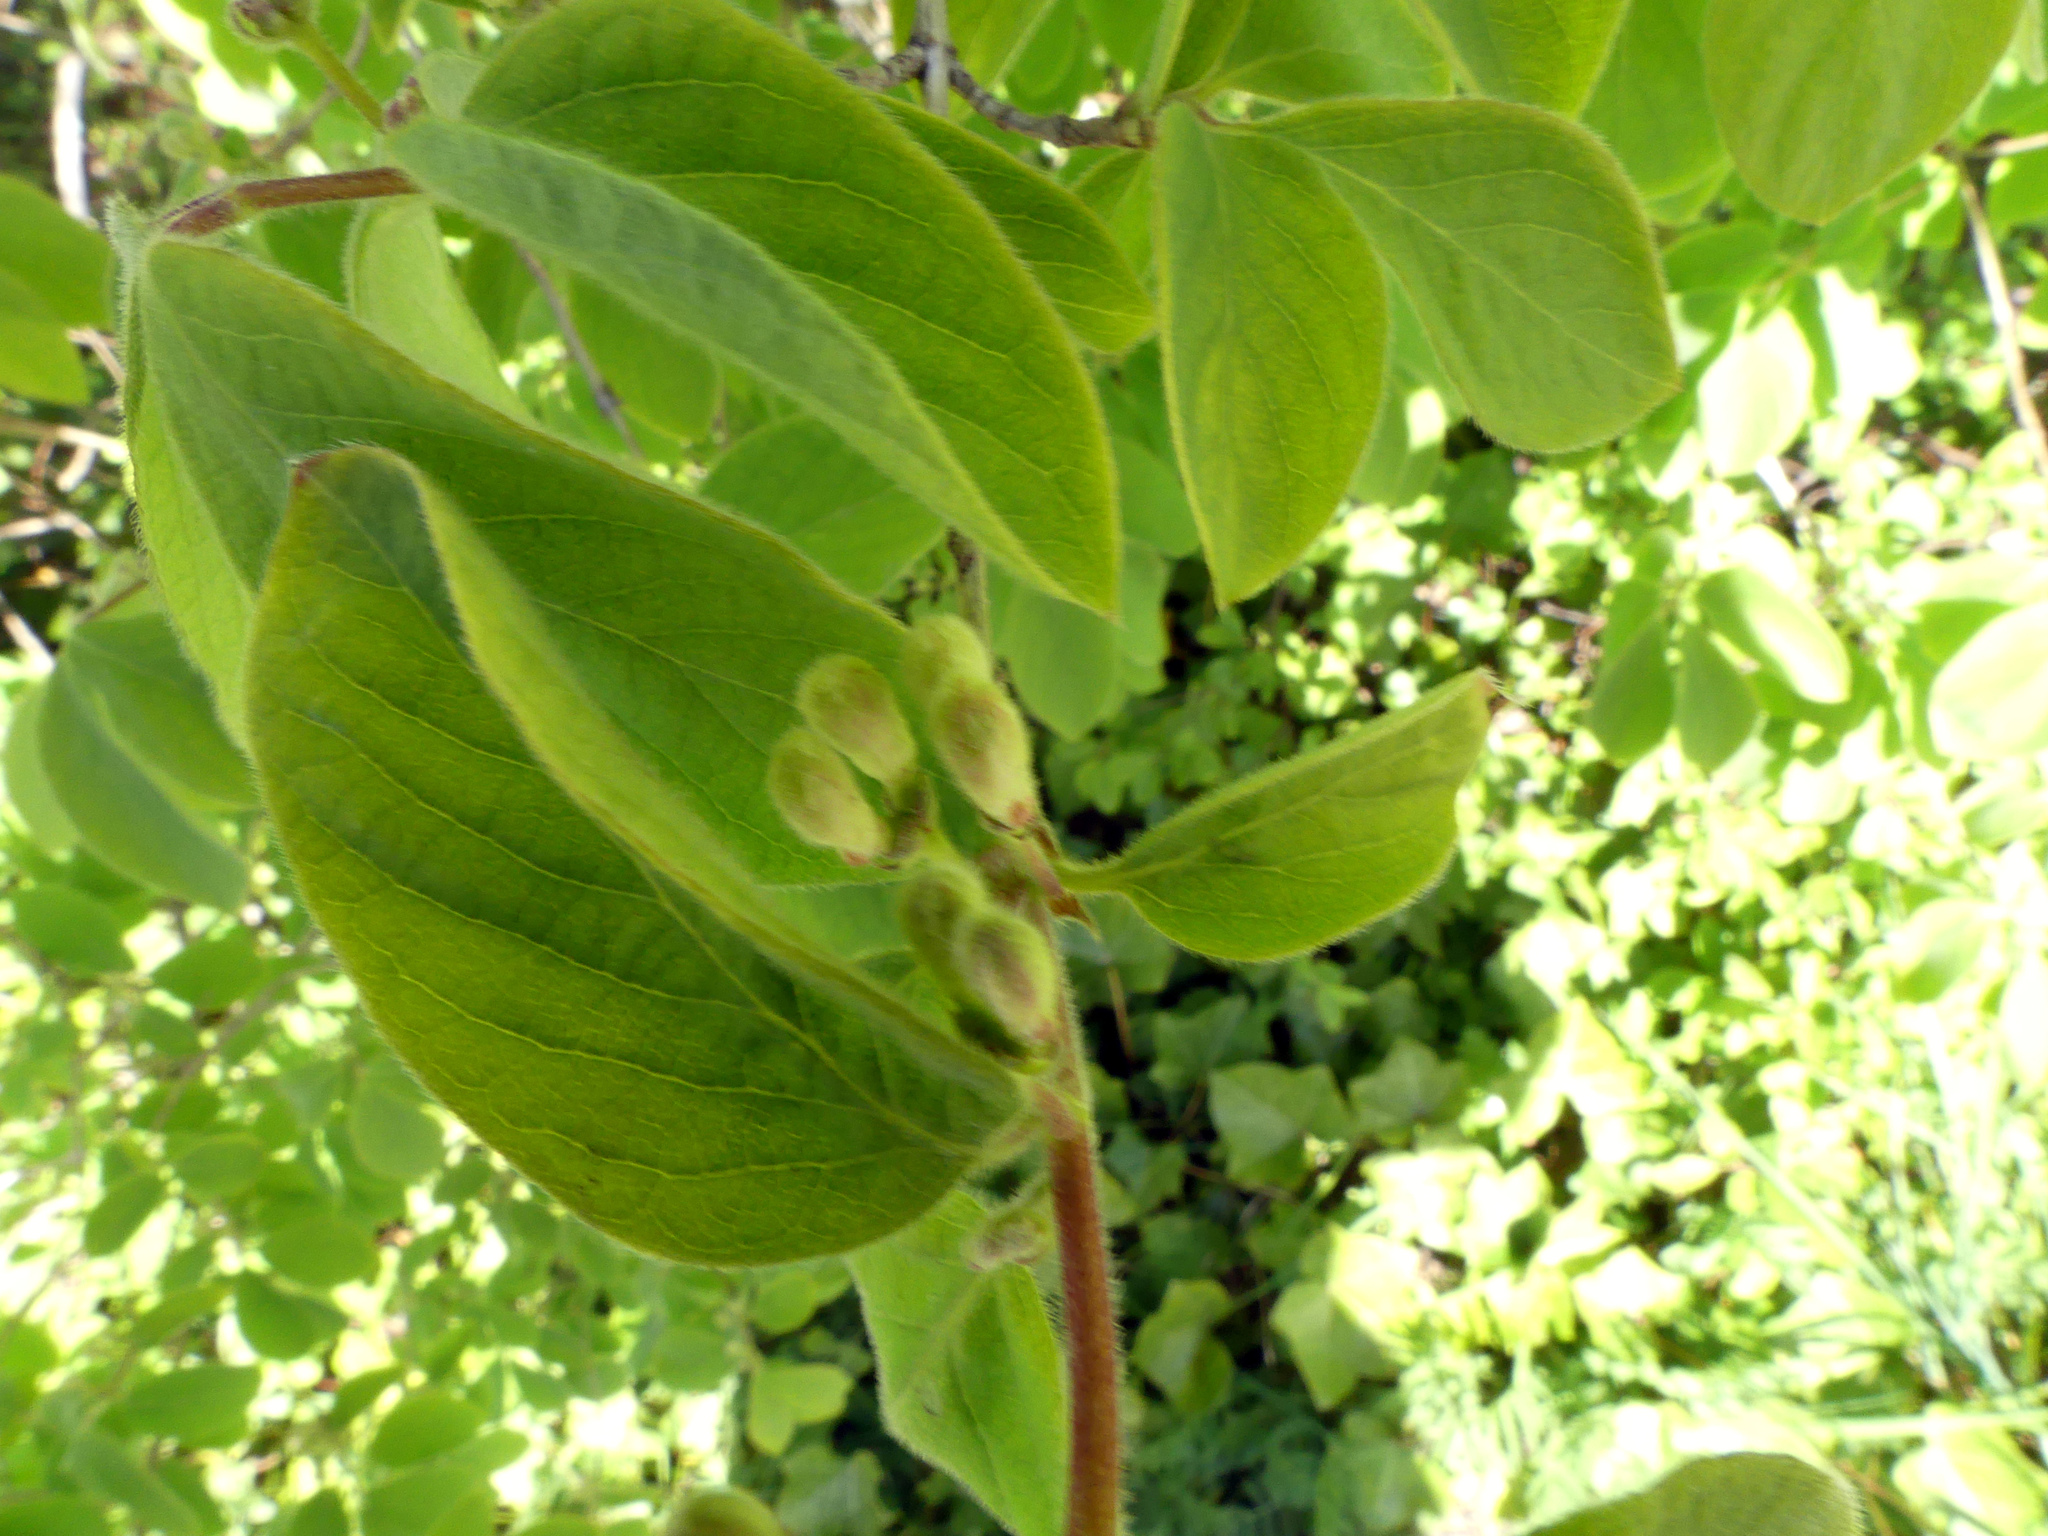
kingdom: Plantae
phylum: Tracheophyta
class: Magnoliopsida
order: Dipsacales
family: Caprifoliaceae
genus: Lonicera
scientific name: Lonicera xylosteum
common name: Fly honeysuckle
